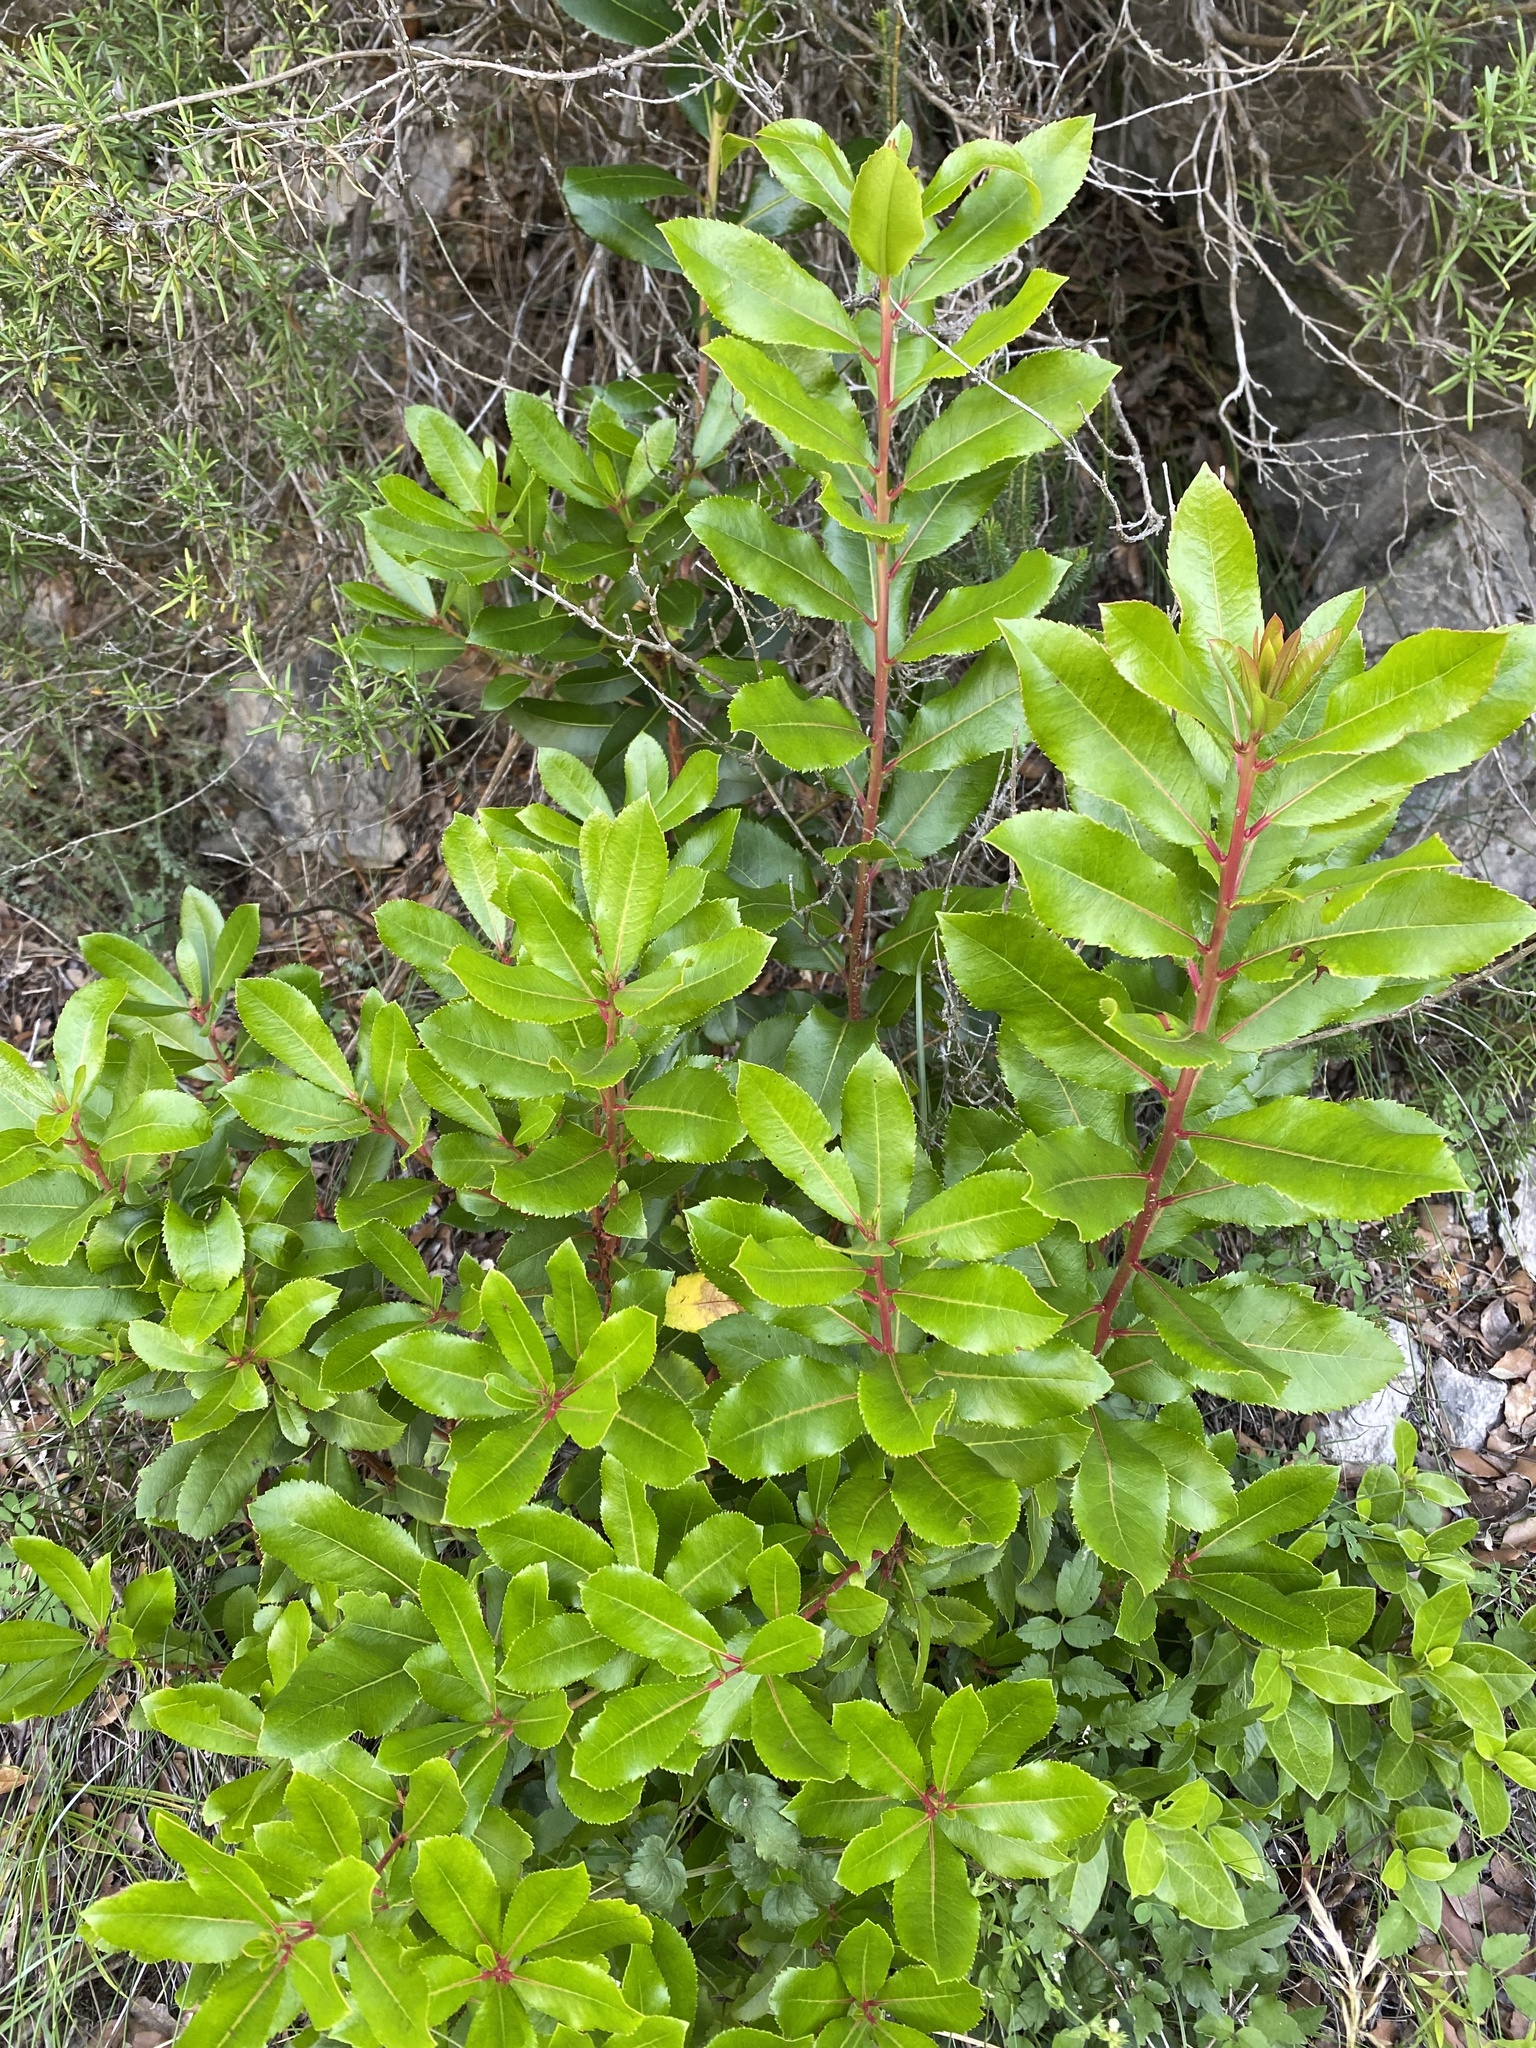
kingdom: Plantae
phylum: Tracheophyta
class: Magnoliopsida
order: Ericales
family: Ericaceae
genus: Arbutus
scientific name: Arbutus unedo
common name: Strawberry-tree
